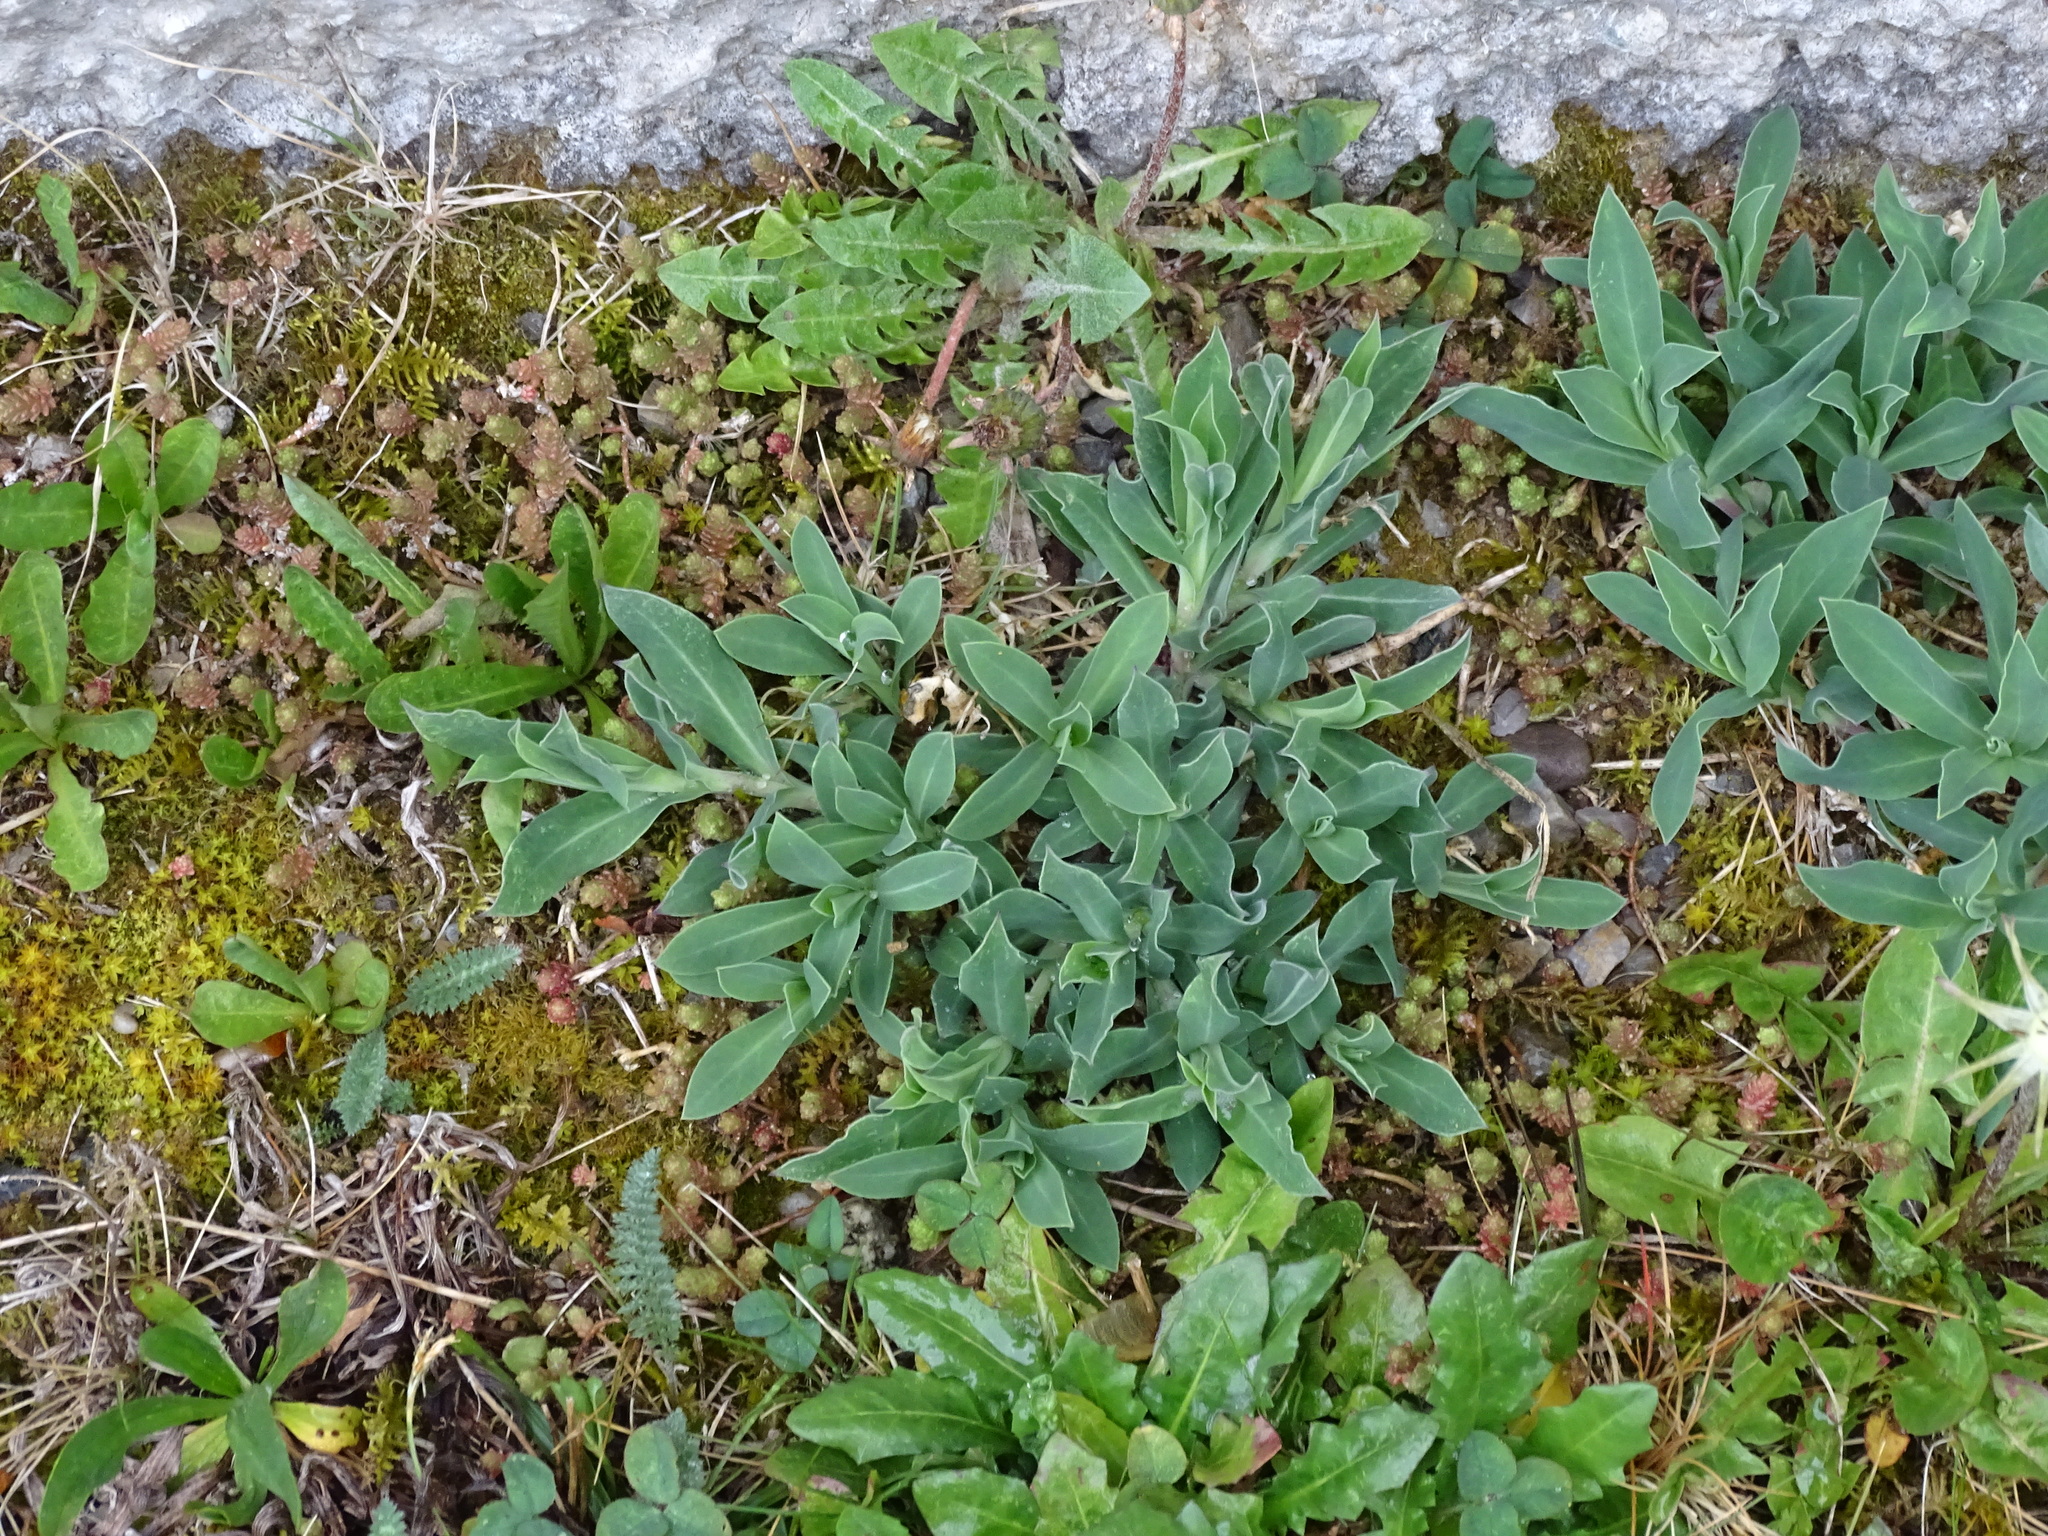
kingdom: Plantae
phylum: Tracheophyta
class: Magnoliopsida
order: Caryophyllales
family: Caryophyllaceae
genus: Silene
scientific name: Silene vulgaris
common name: Bladder campion
